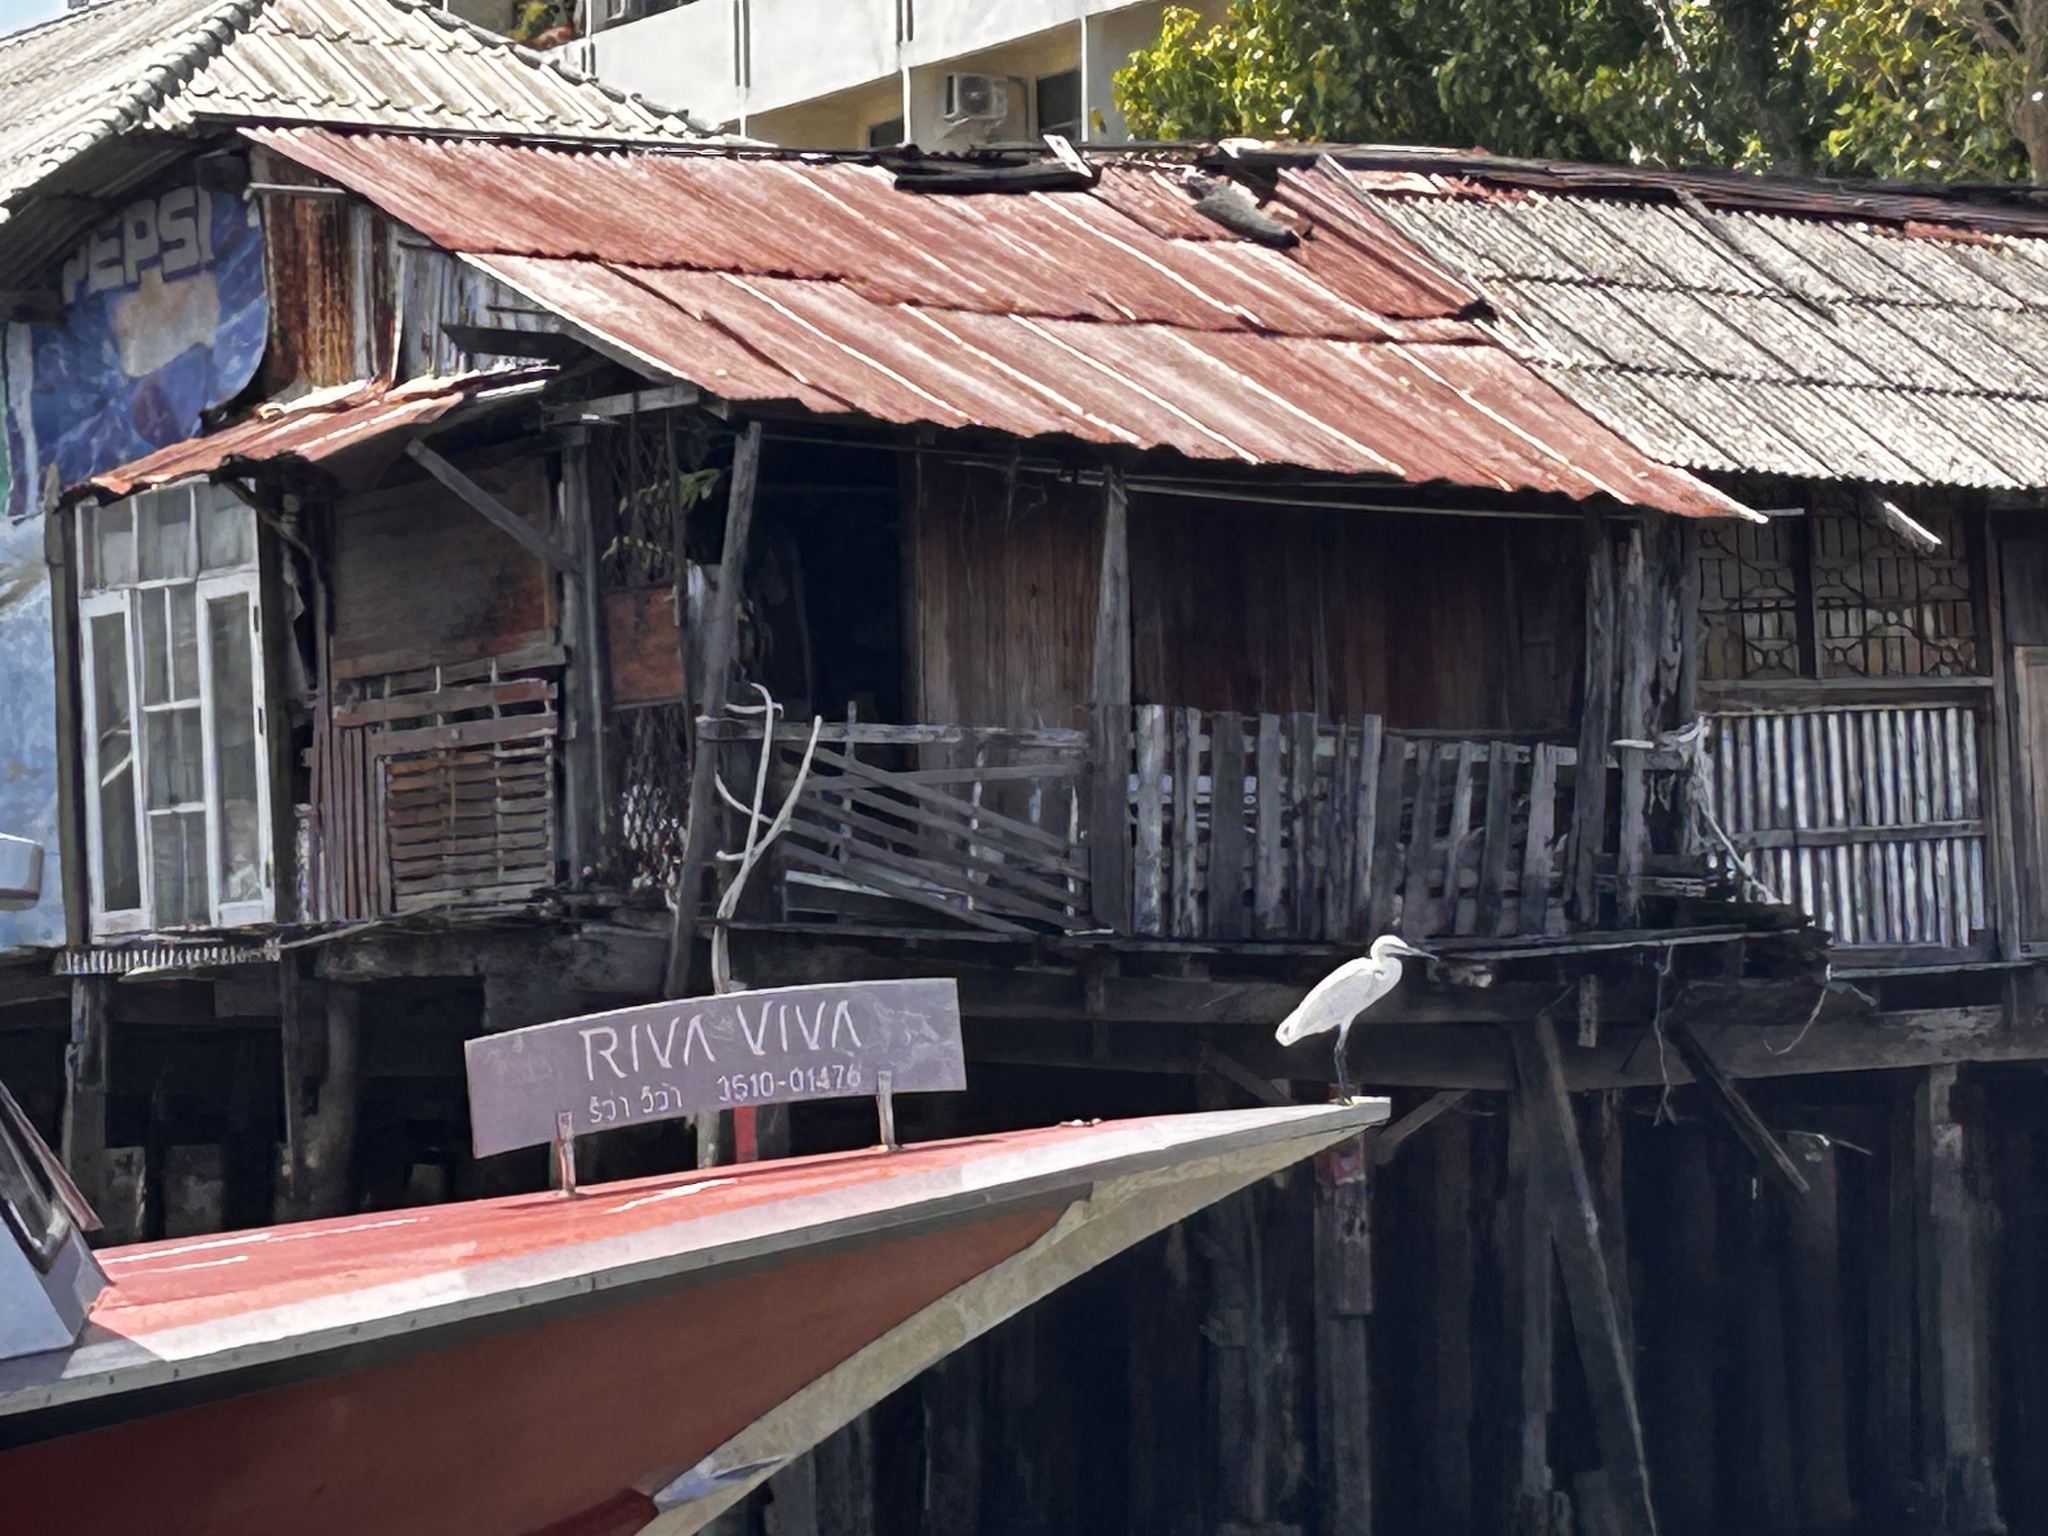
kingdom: Animalia
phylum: Chordata
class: Aves
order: Pelecaniformes
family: Ardeidae
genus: Egretta
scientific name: Egretta garzetta
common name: Little egret
